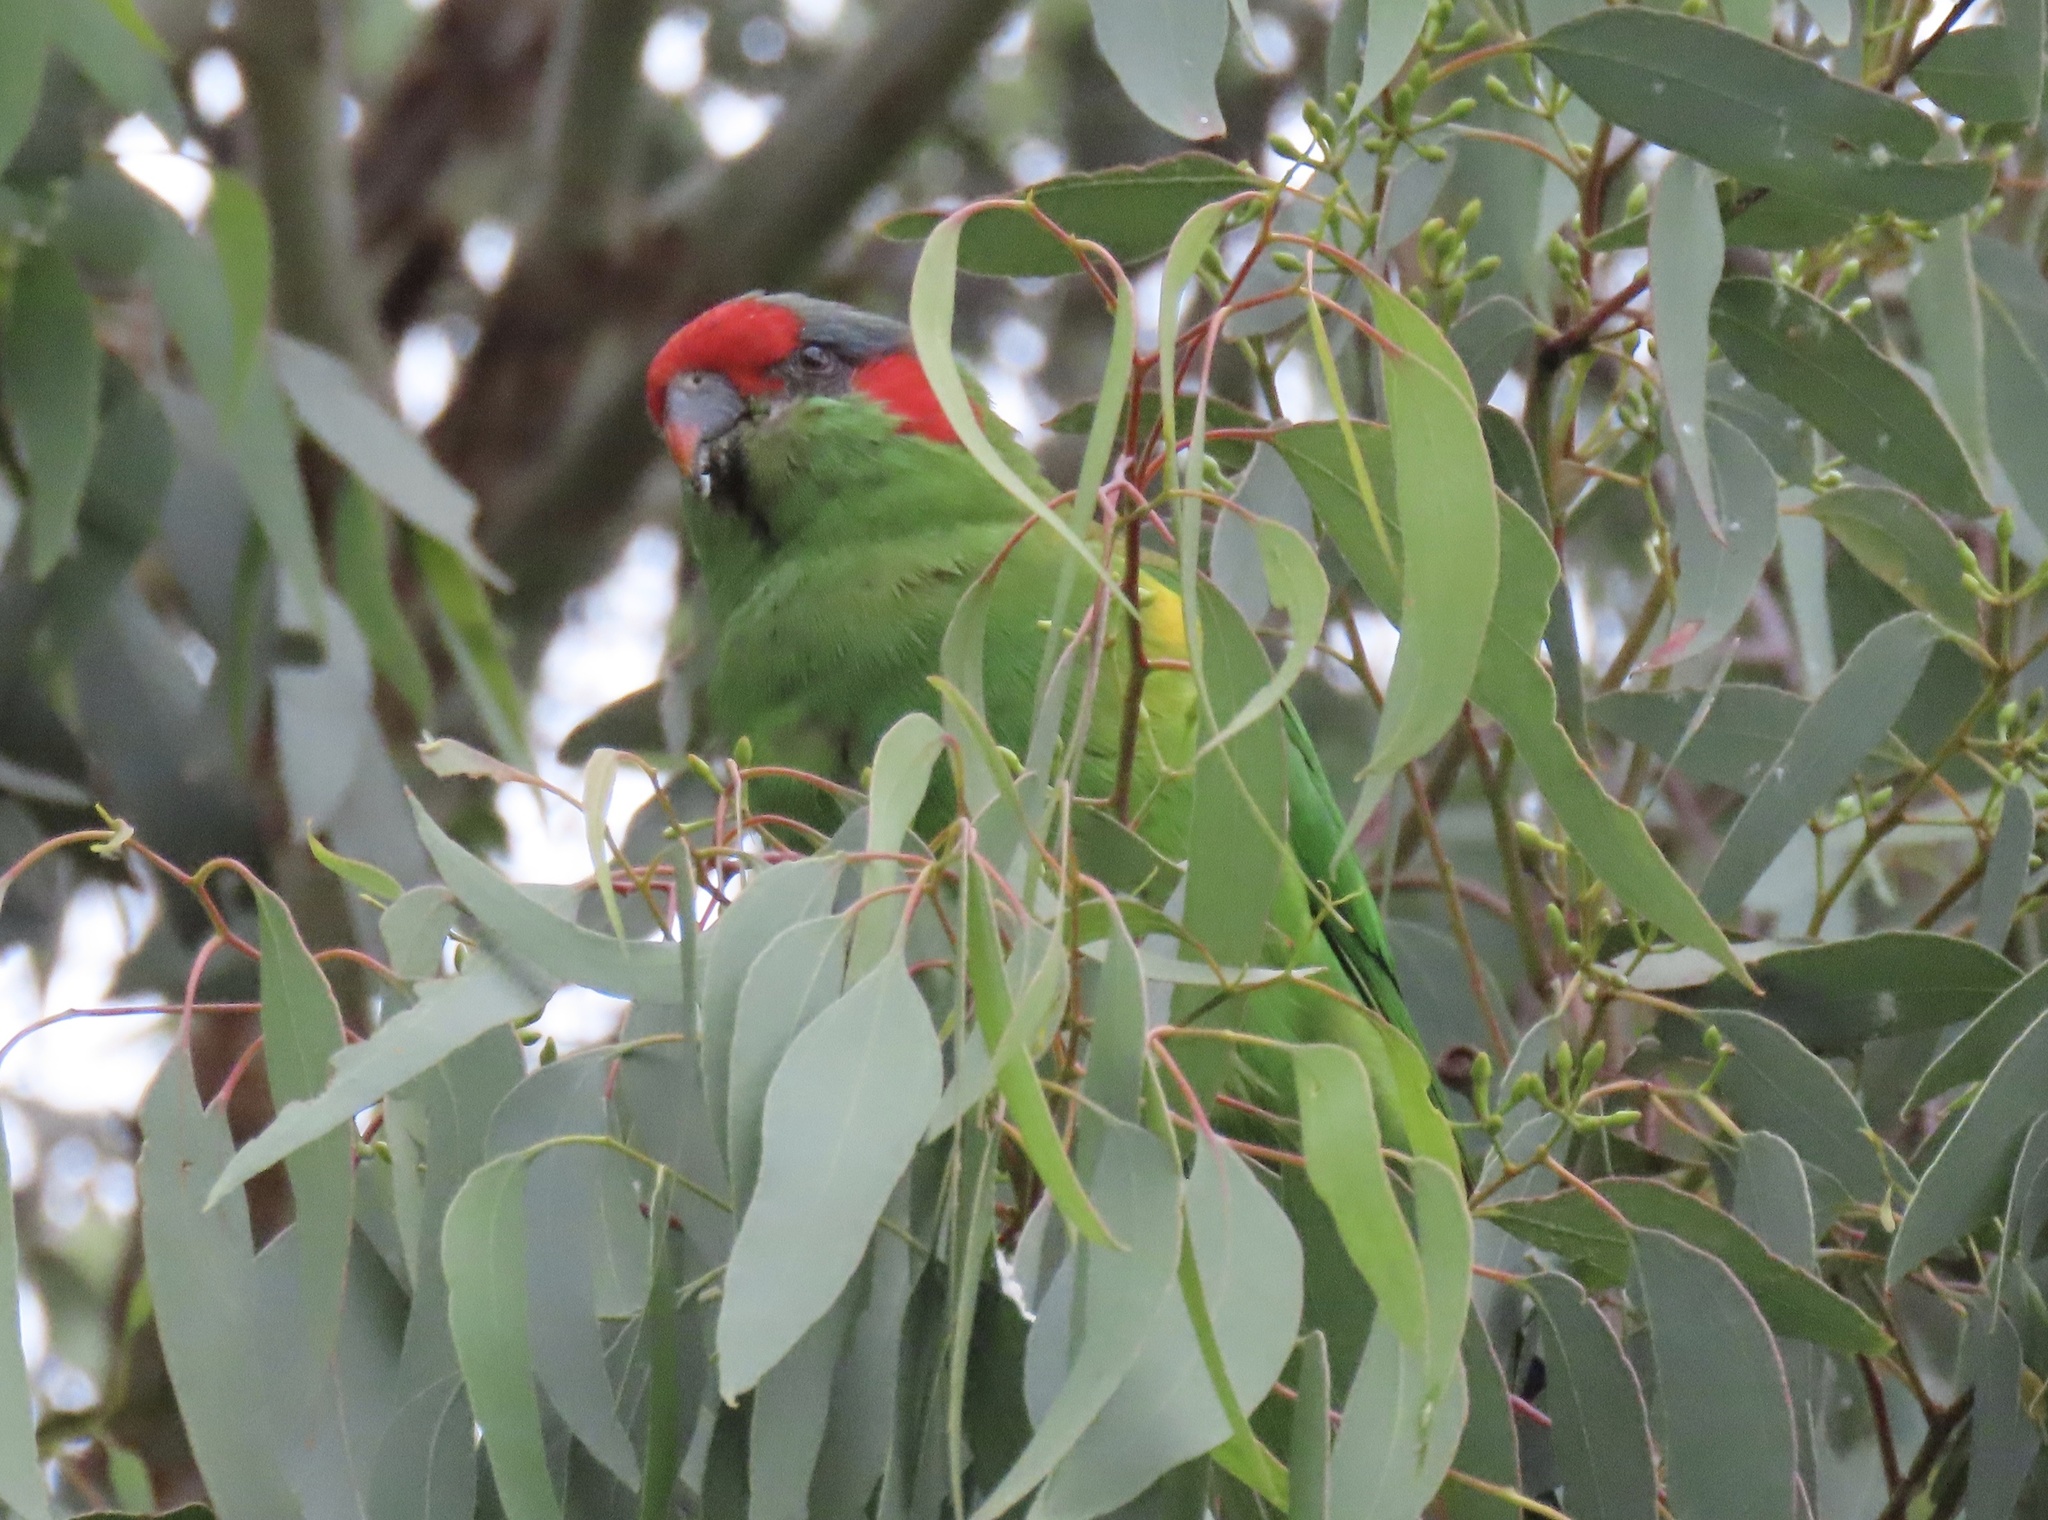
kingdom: Animalia
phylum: Chordata
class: Aves
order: Psittaciformes
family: Psittacidae
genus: Glossopsitta
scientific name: Glossopsitta concinna
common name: Musk lorikeet
